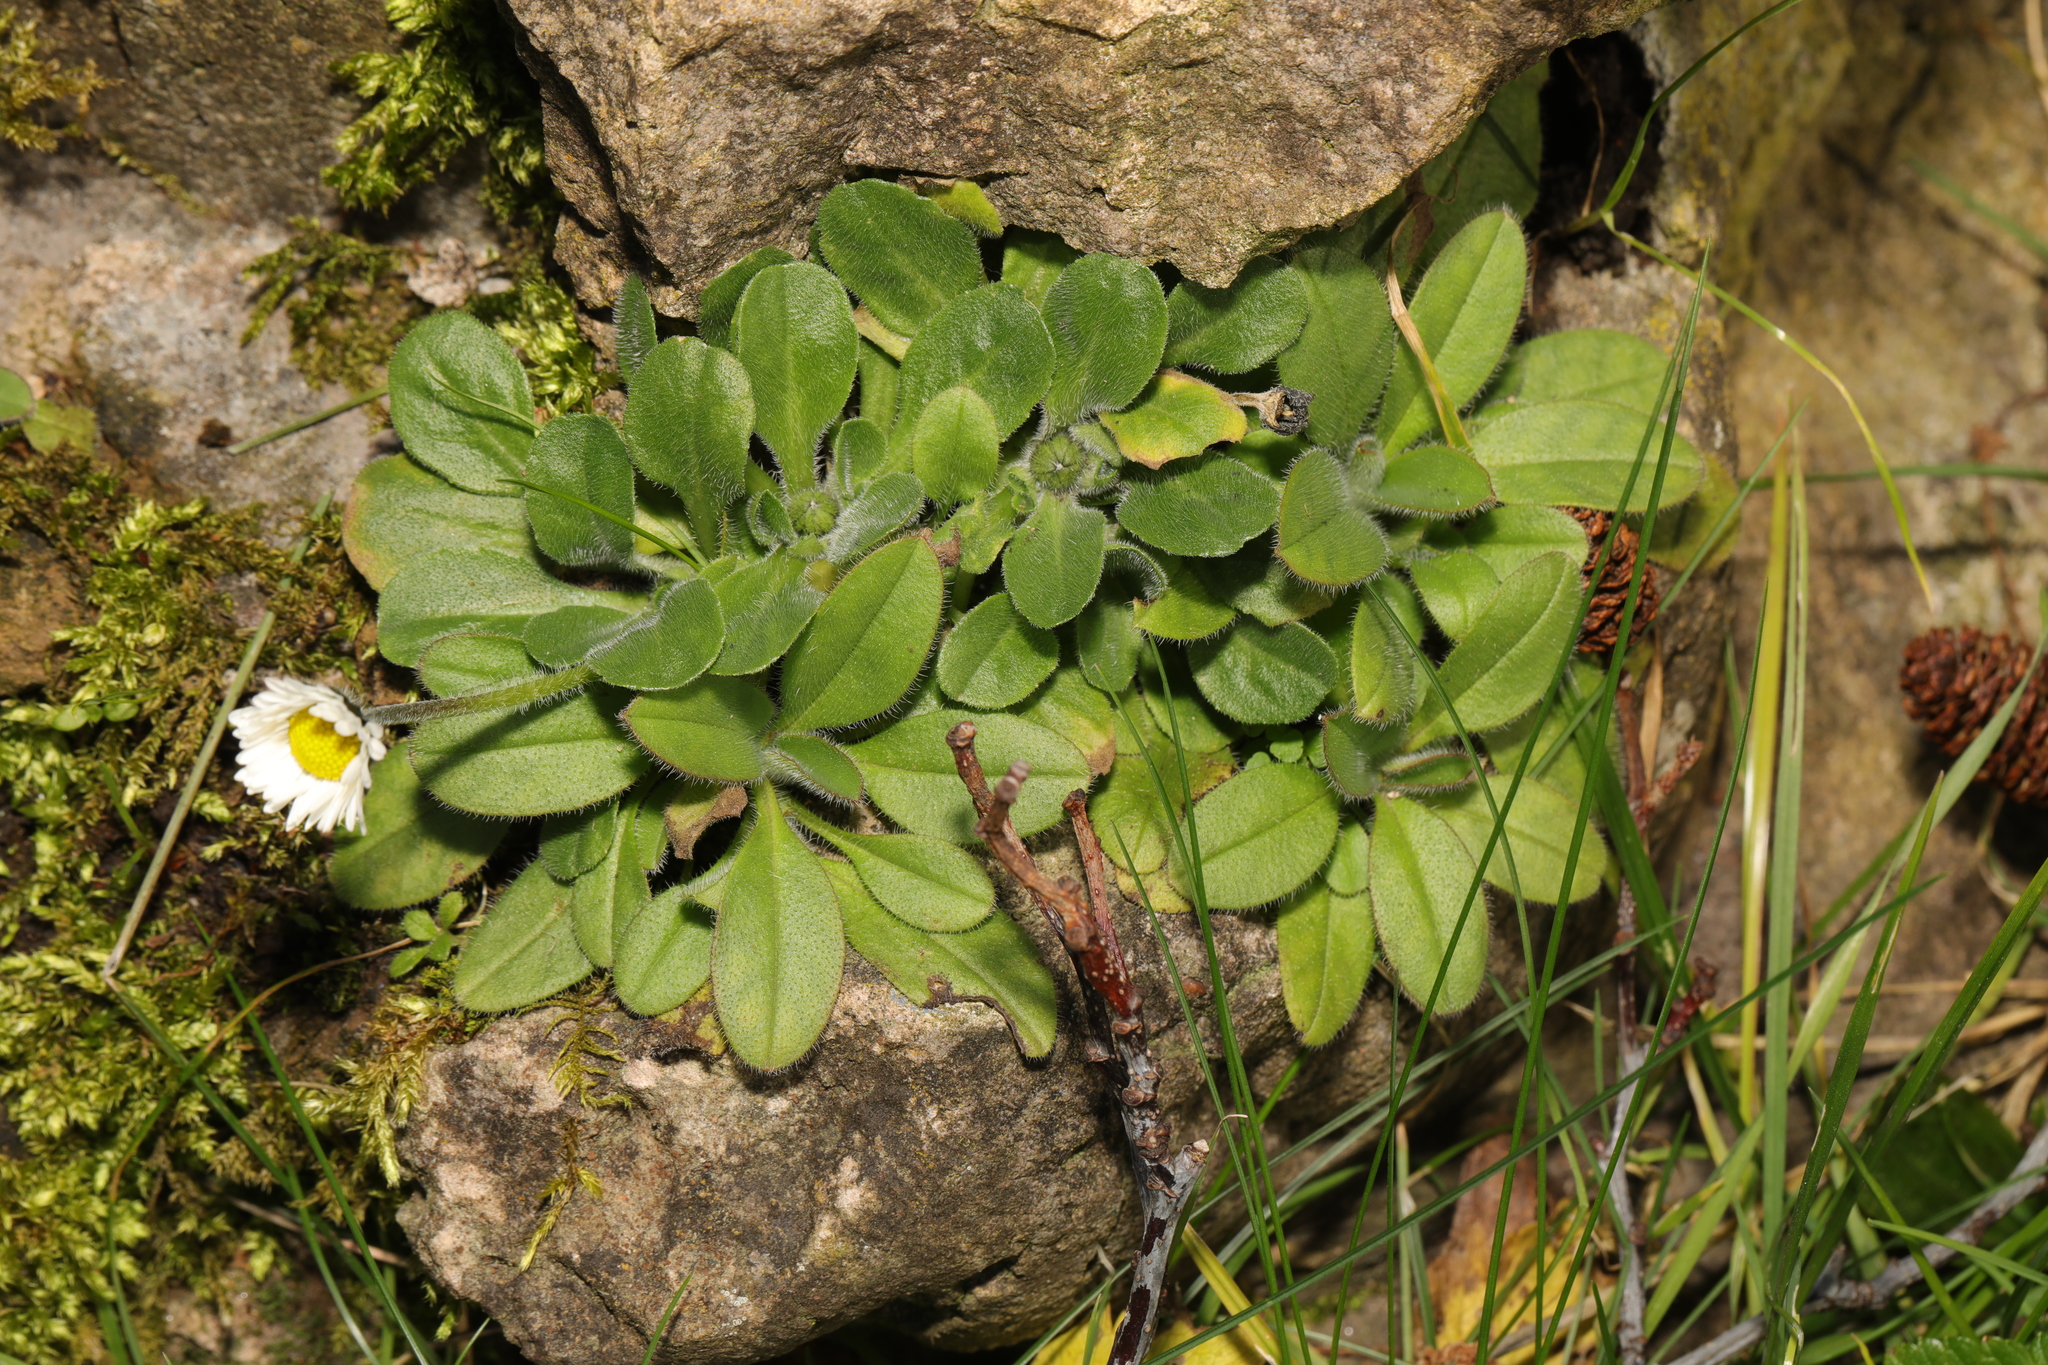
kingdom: Plantae
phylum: Tracheophyta
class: Magnoliopsida
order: Asterales
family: Asteraceae
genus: Bellis
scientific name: Bellis perennis
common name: Lawndaisy
